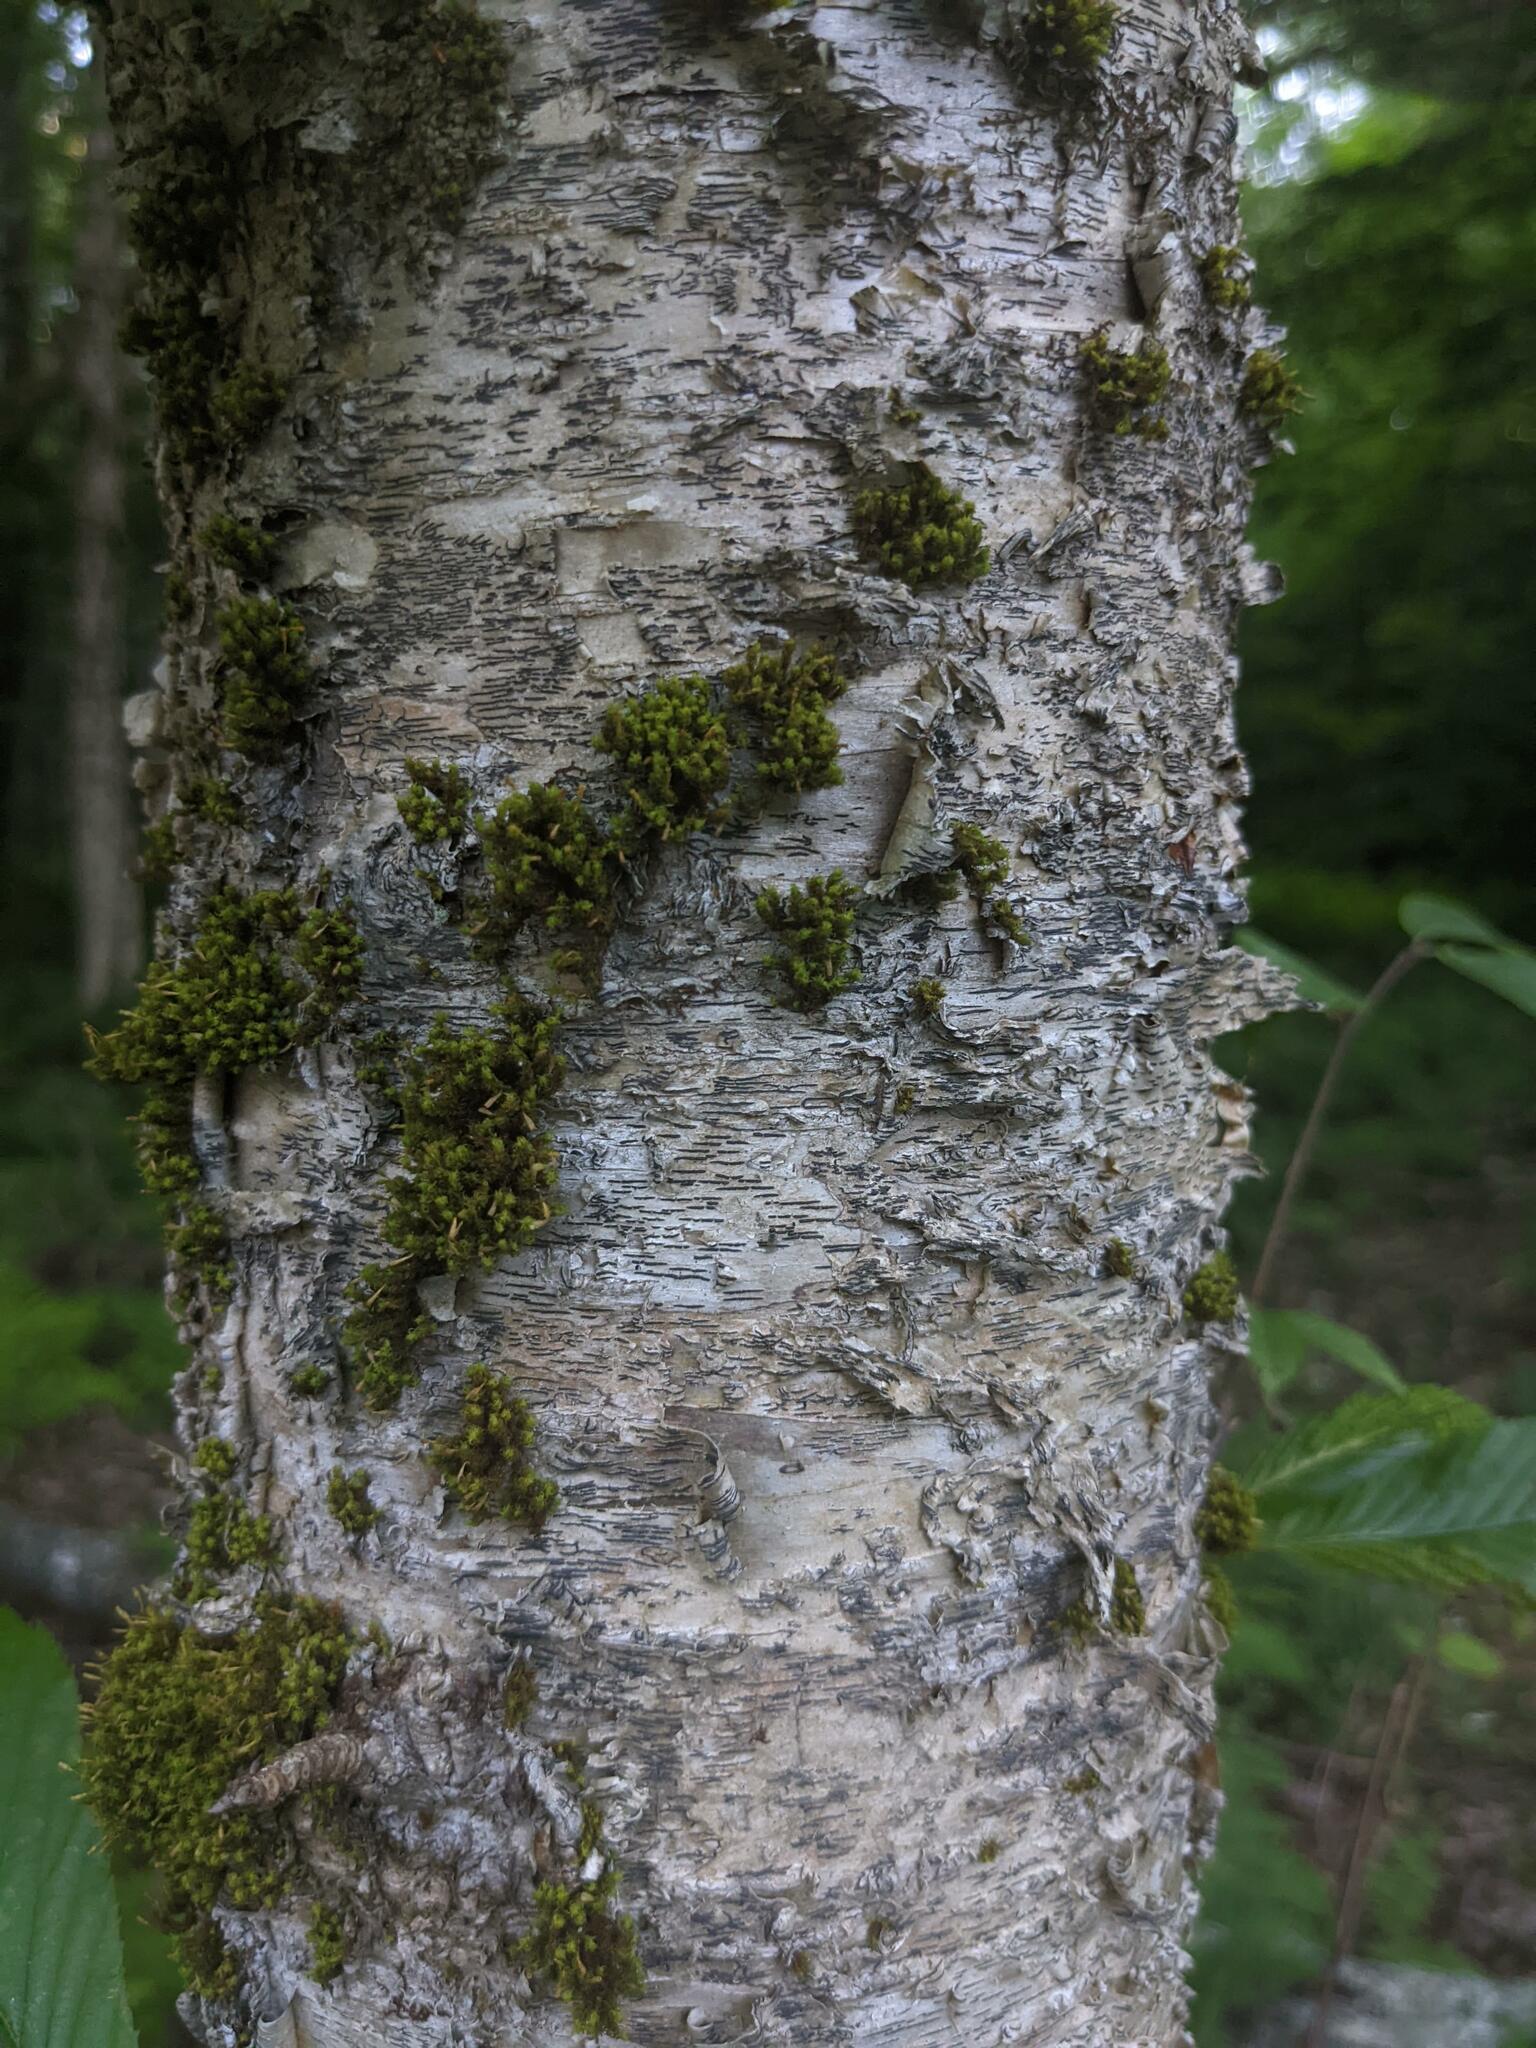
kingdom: Plantae
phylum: Bryophyta
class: Bryopsida
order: Orthotrichales
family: Orthotrichaceae
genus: Ulota
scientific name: Ulota crispa
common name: Crisped pincushion moss
